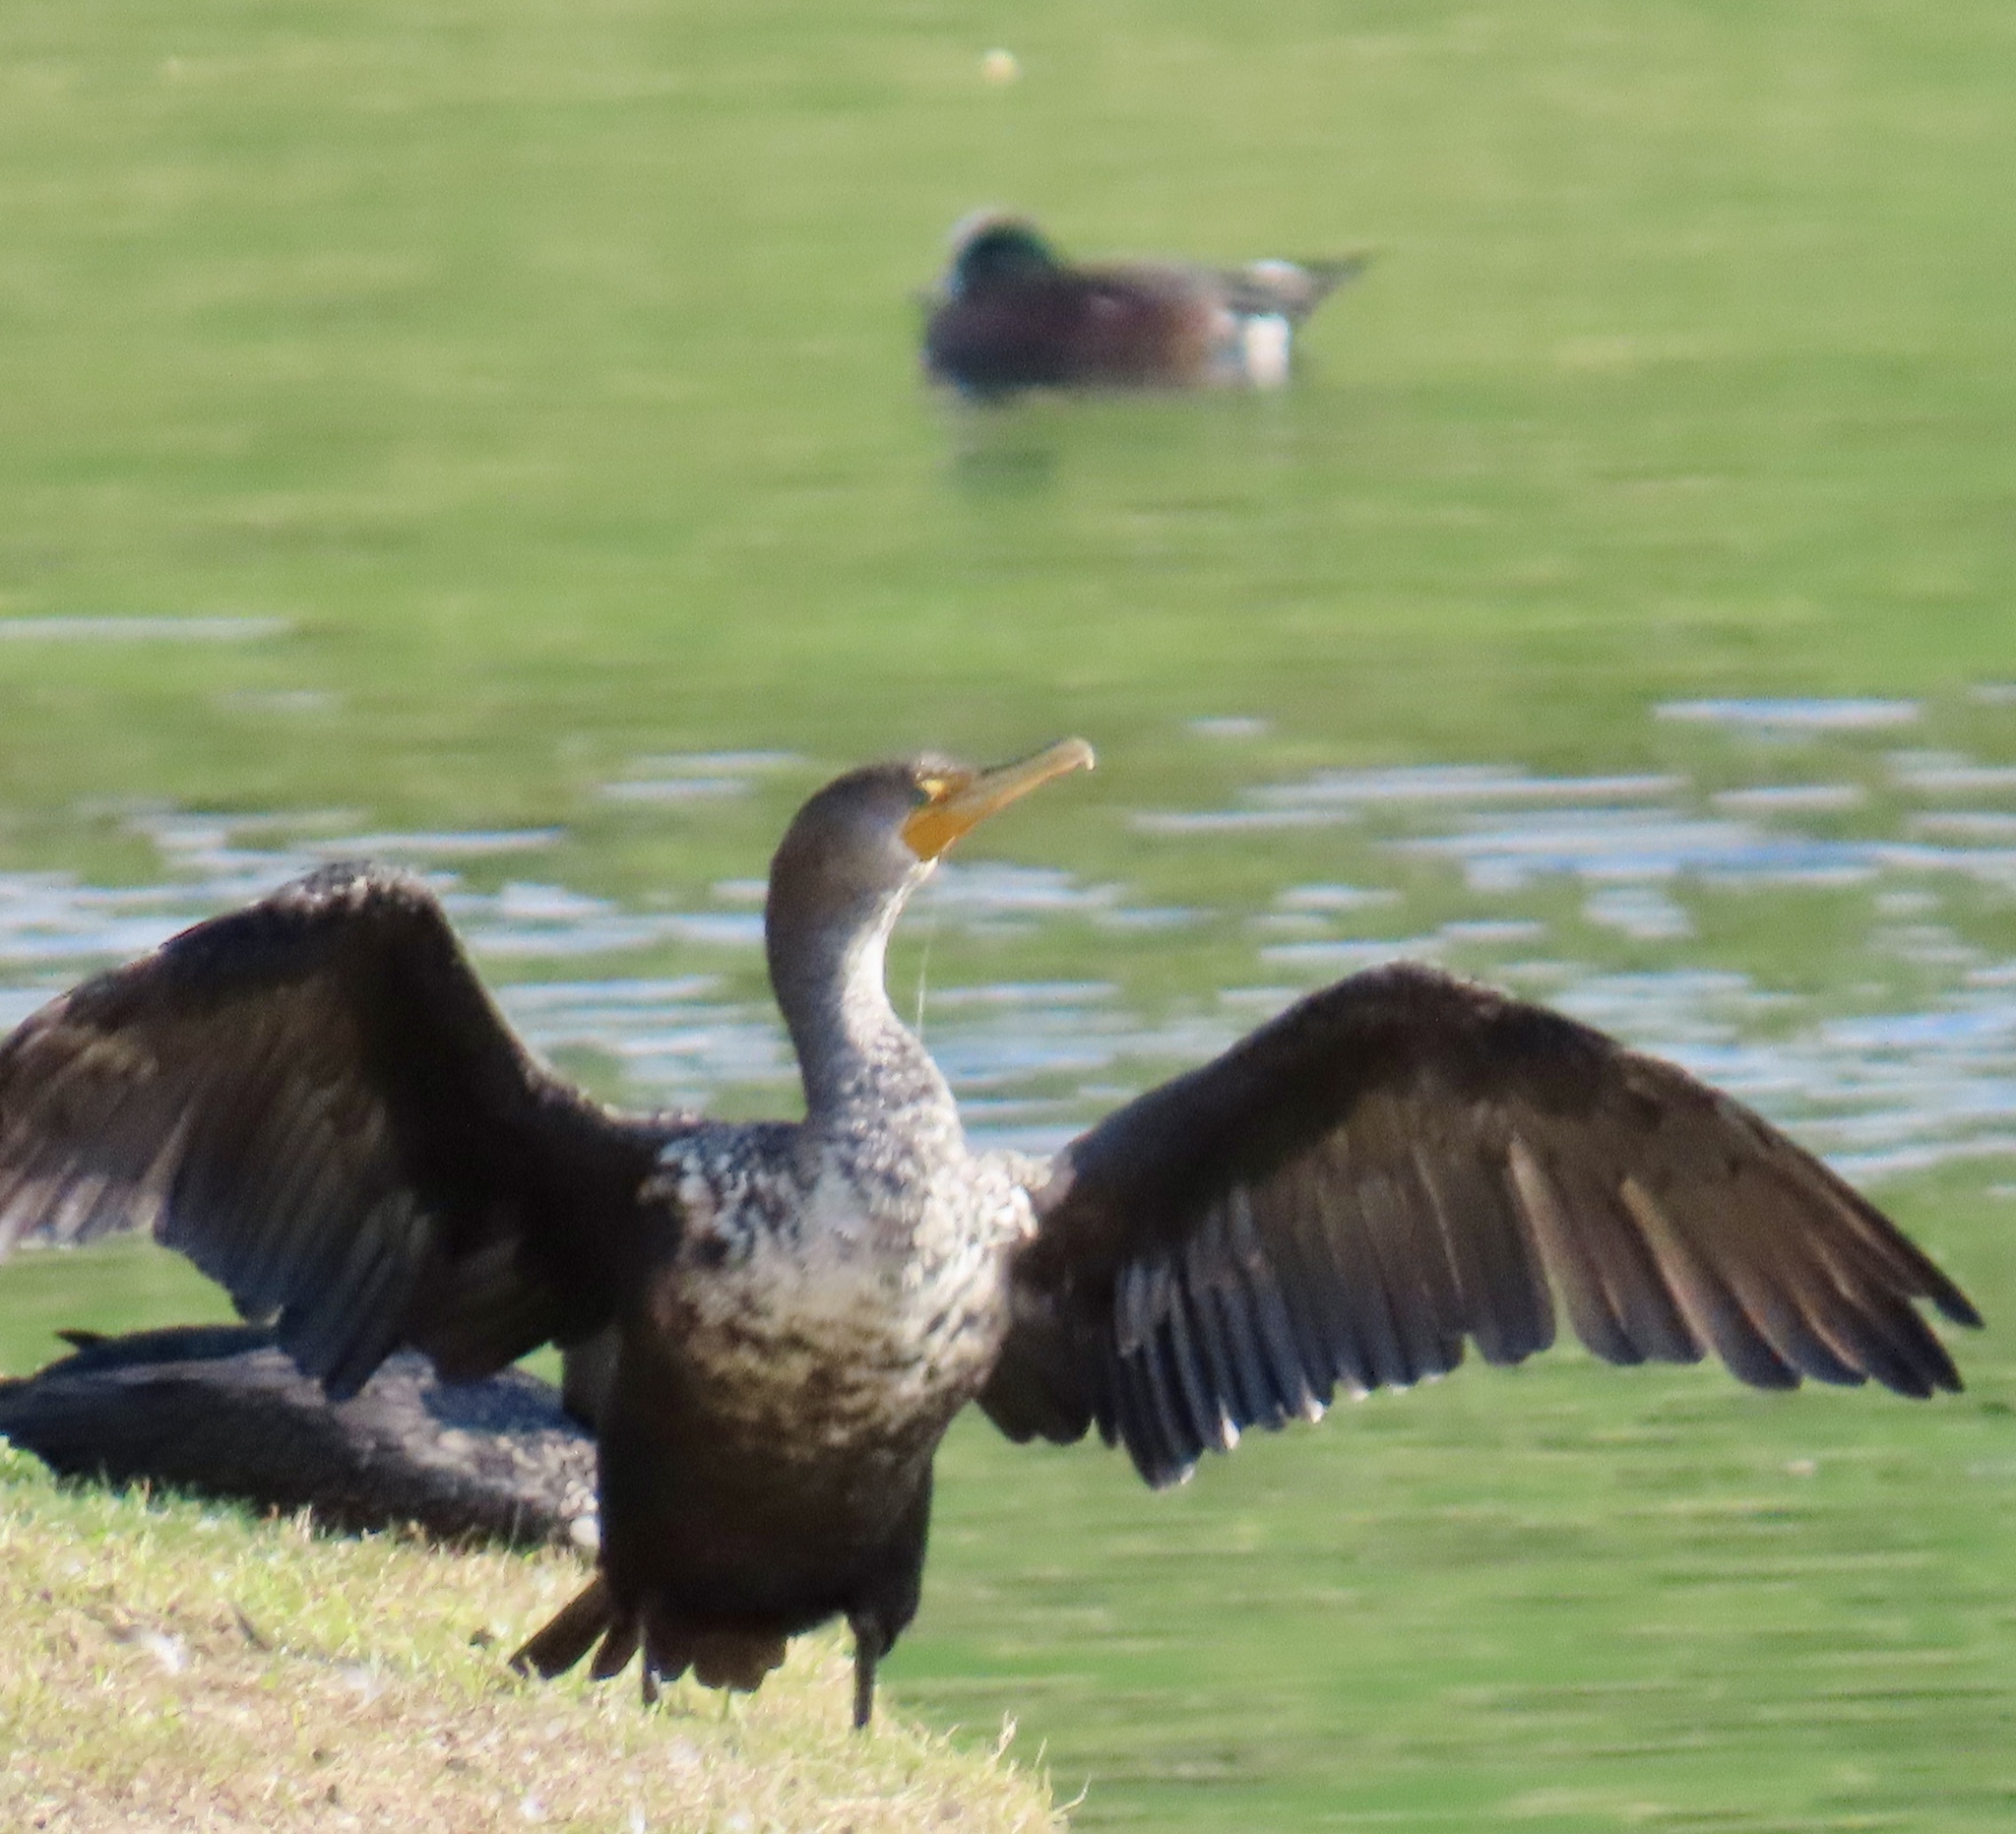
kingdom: Animalia
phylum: Chordata
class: Aves
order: Suliformes
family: Phalacrocoracidae
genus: Phalacrocorax
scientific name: Phalacrocorax auritus
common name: Double-crested cormorant
